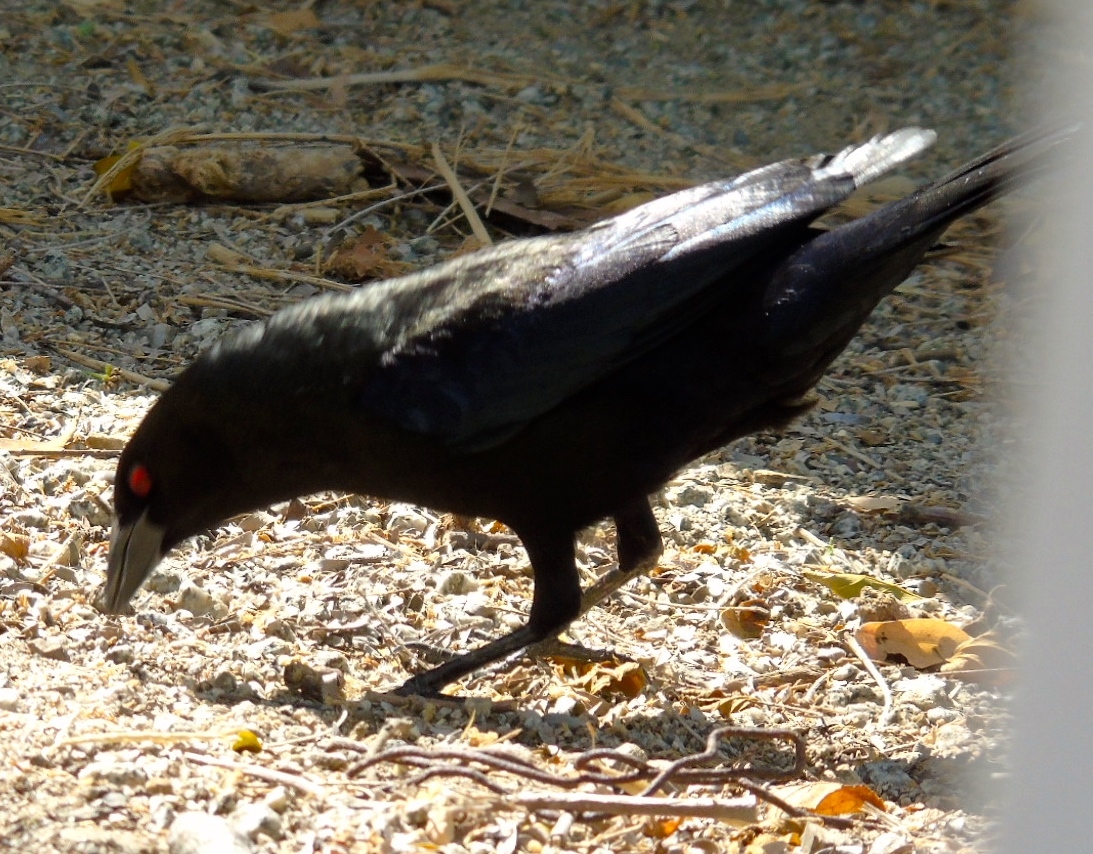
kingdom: Animalia
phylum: Chordata
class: Aves
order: Passeriformes
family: Icteridae
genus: Molothrus
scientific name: Molothrus aeneus
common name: Bronzed cowbird
